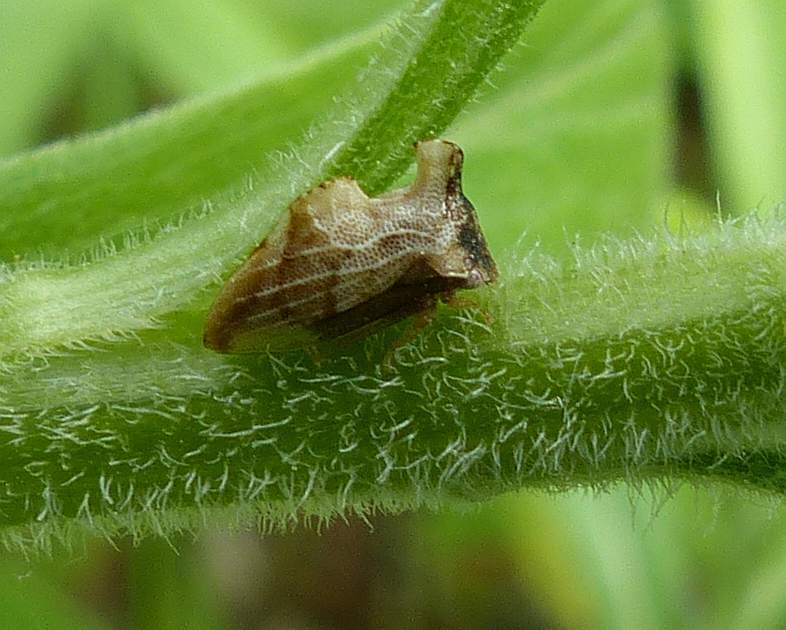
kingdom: Animalia
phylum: Arthropoda
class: Insecta
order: Hemiptera
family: Membracidae
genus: Entylia
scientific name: Entylia carinata
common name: Keeled treehopper
